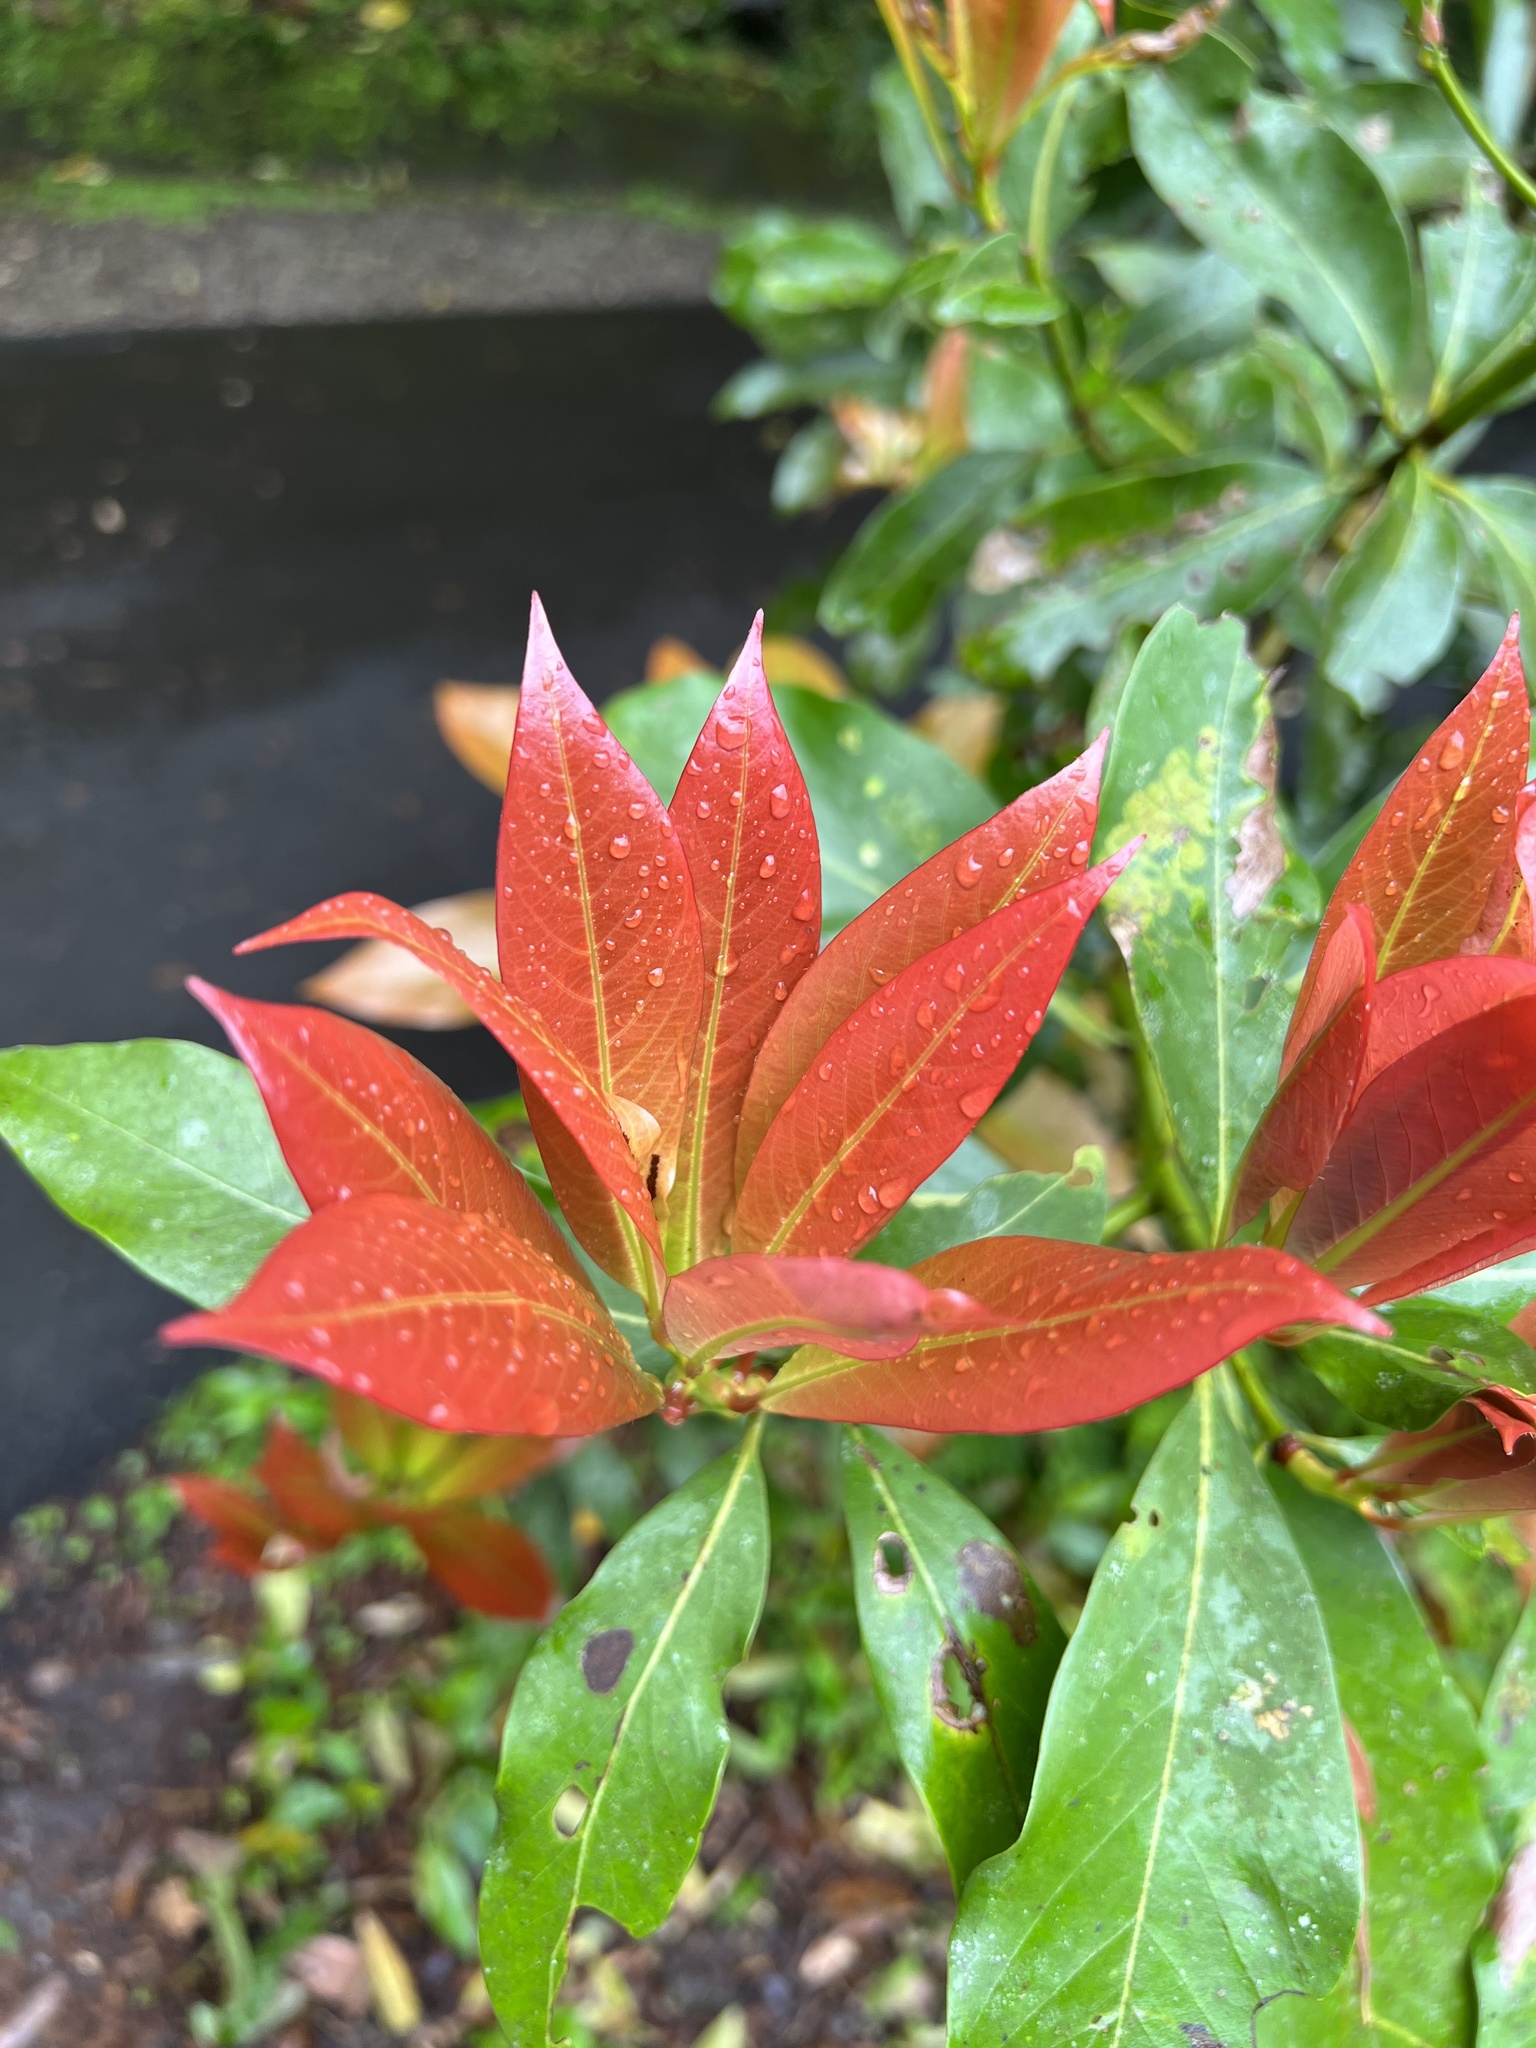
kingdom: Plantae
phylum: Tracheophyta
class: Magnoliopsida
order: Laurales
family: Lauraceae
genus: Machilus
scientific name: Machilus japonica
